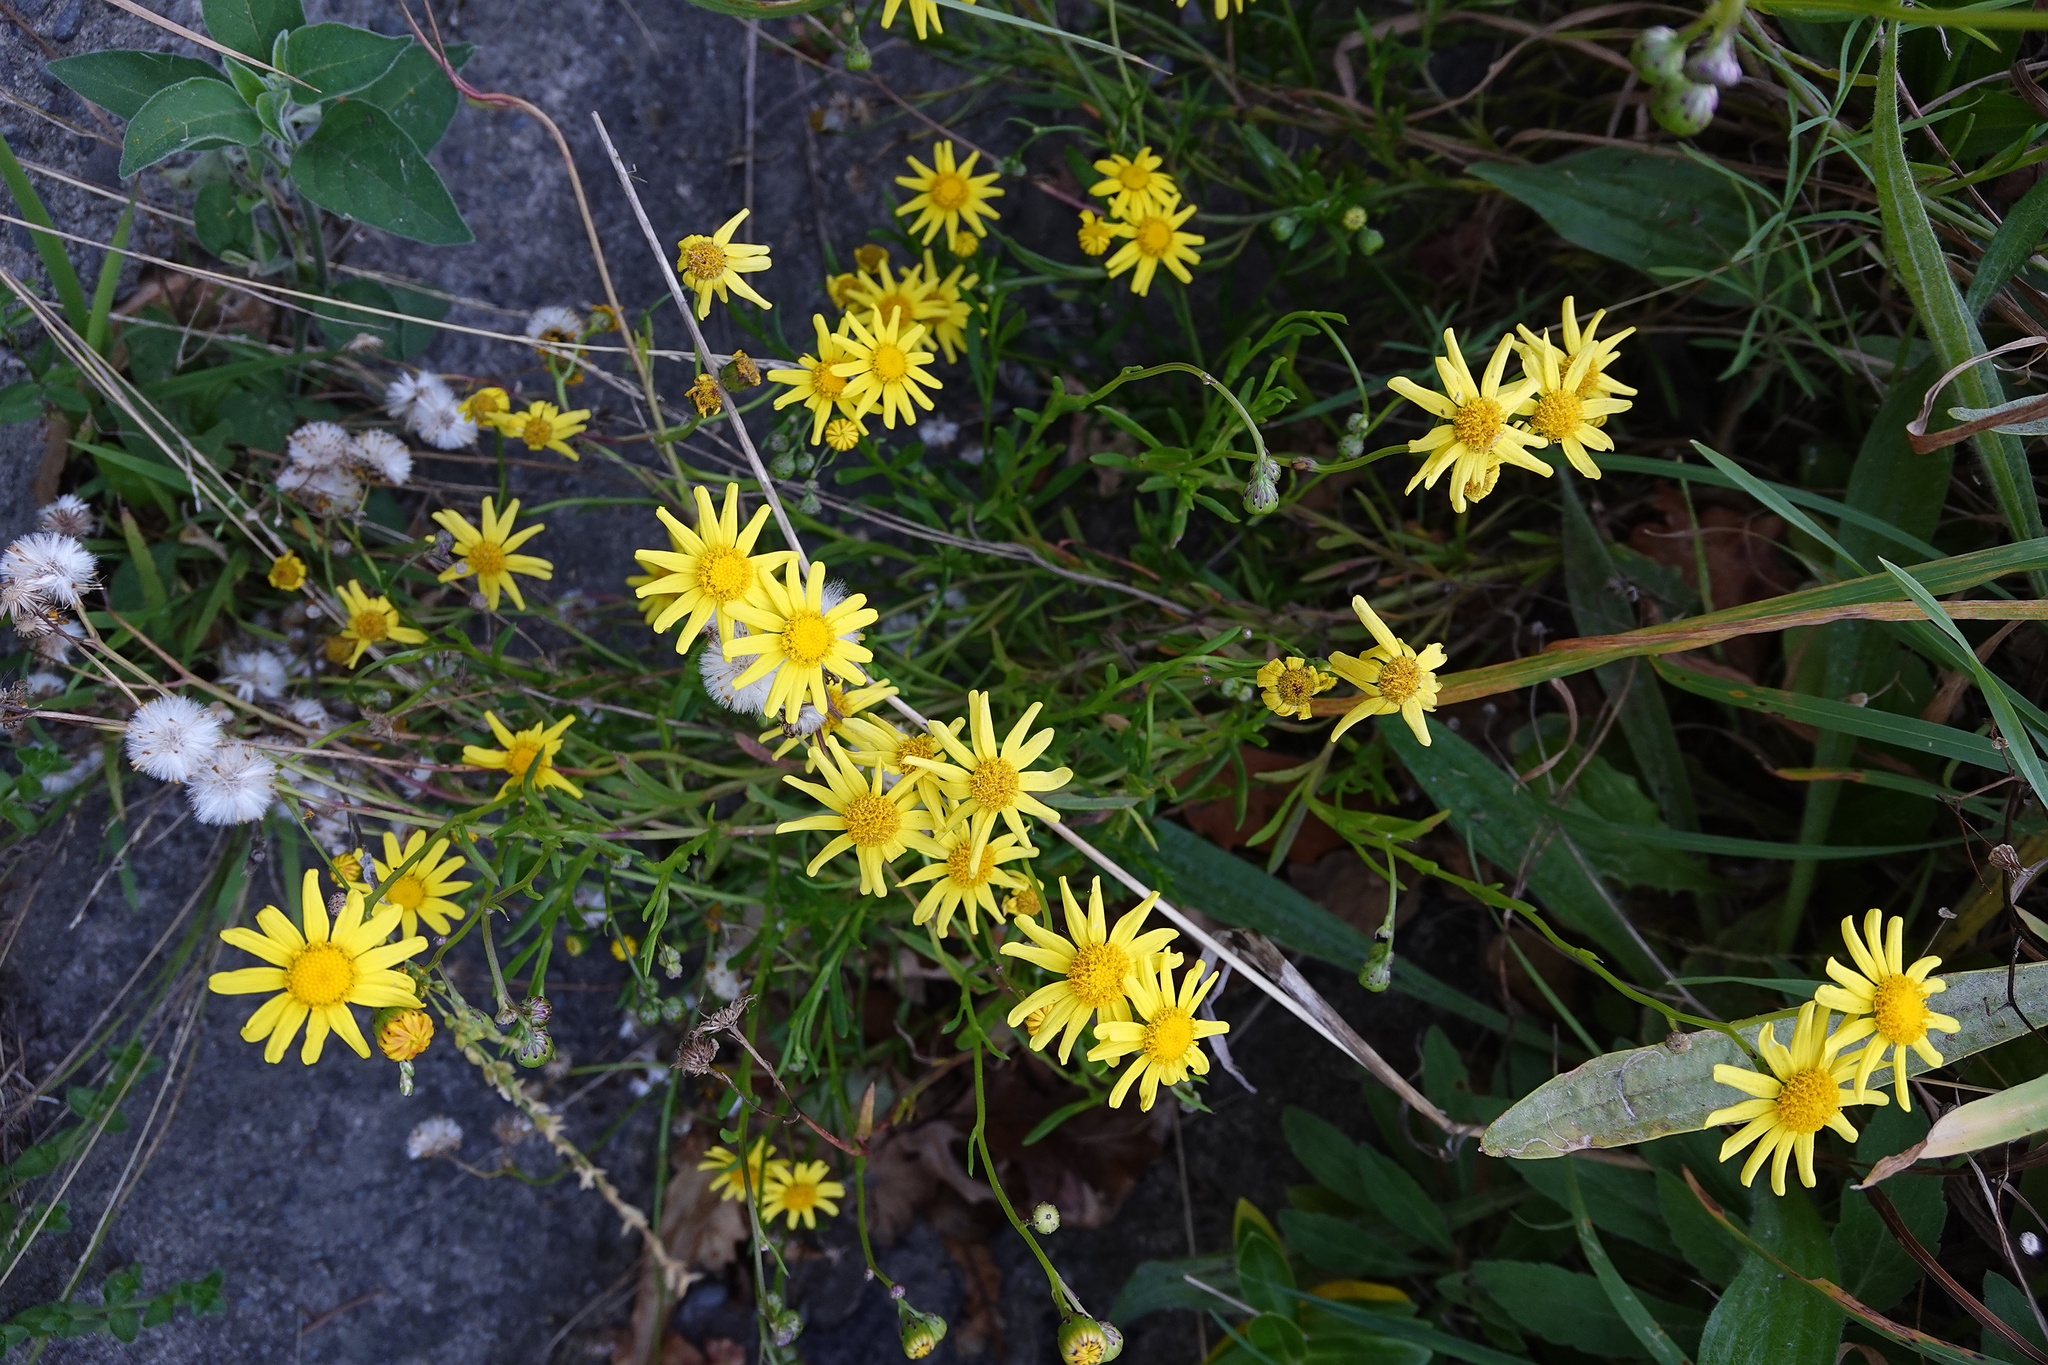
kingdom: Plantae
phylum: Tracheophyta
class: Magnoliopsida
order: Asterales
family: Asteraceae
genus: Senecio
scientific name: Senecio skirrhodon
